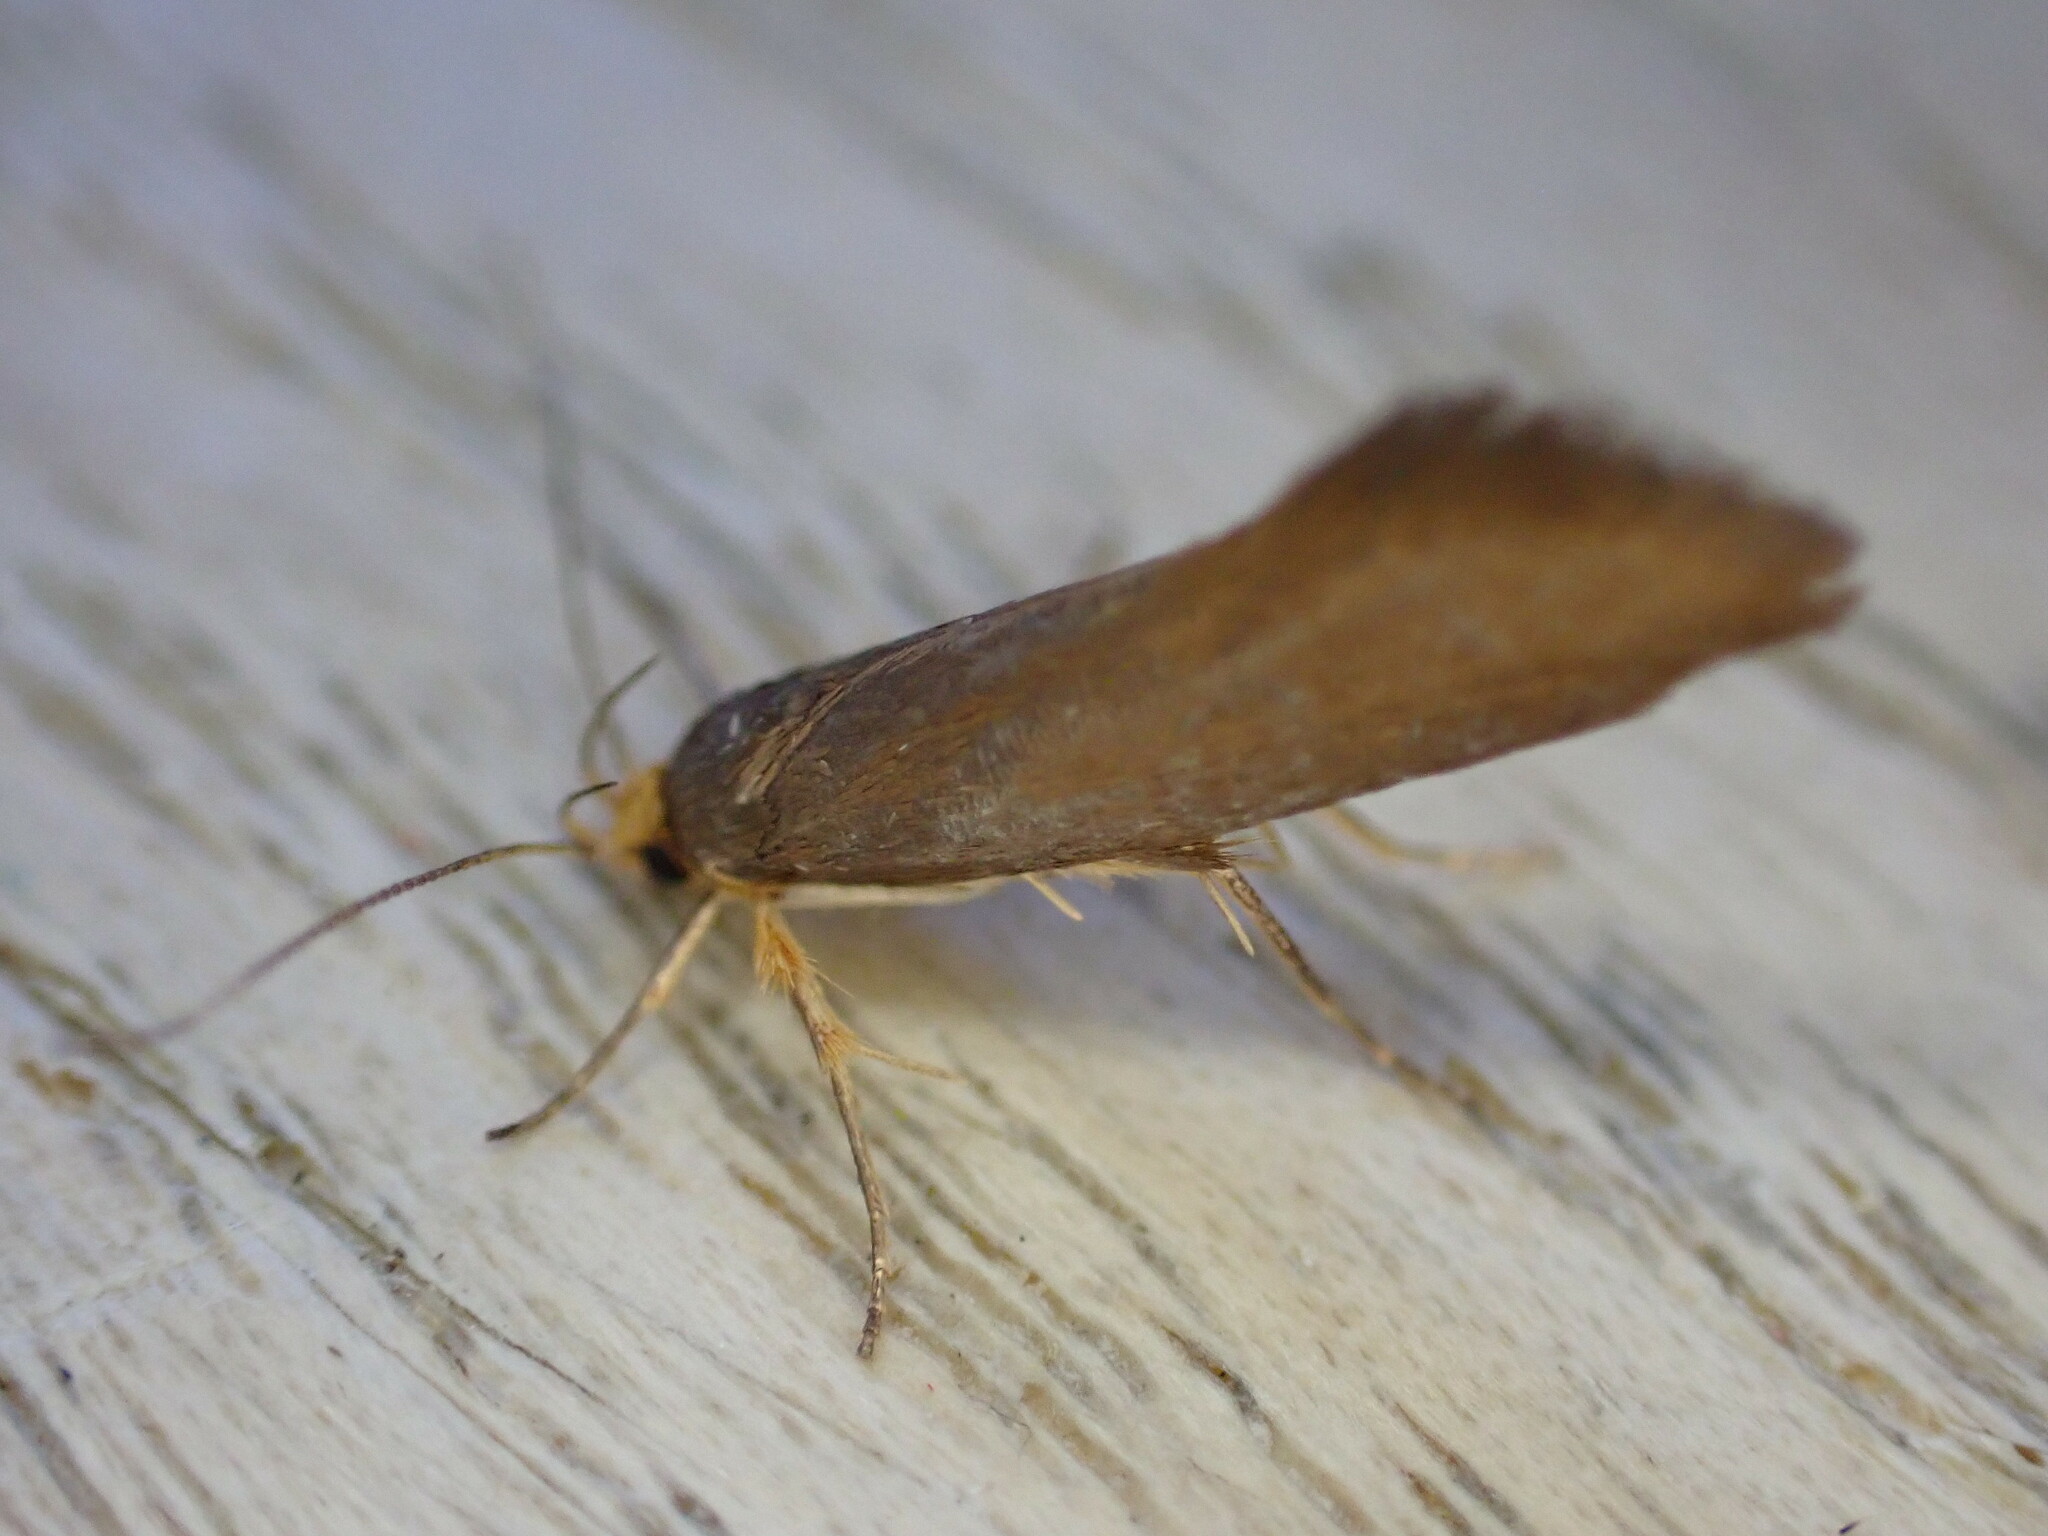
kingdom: Animalia
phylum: Arthropoda
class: Insecta
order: Lepidoptera
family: Oecophoridae
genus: Borkhausenia
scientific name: Borkhausenia Crassa unitella
